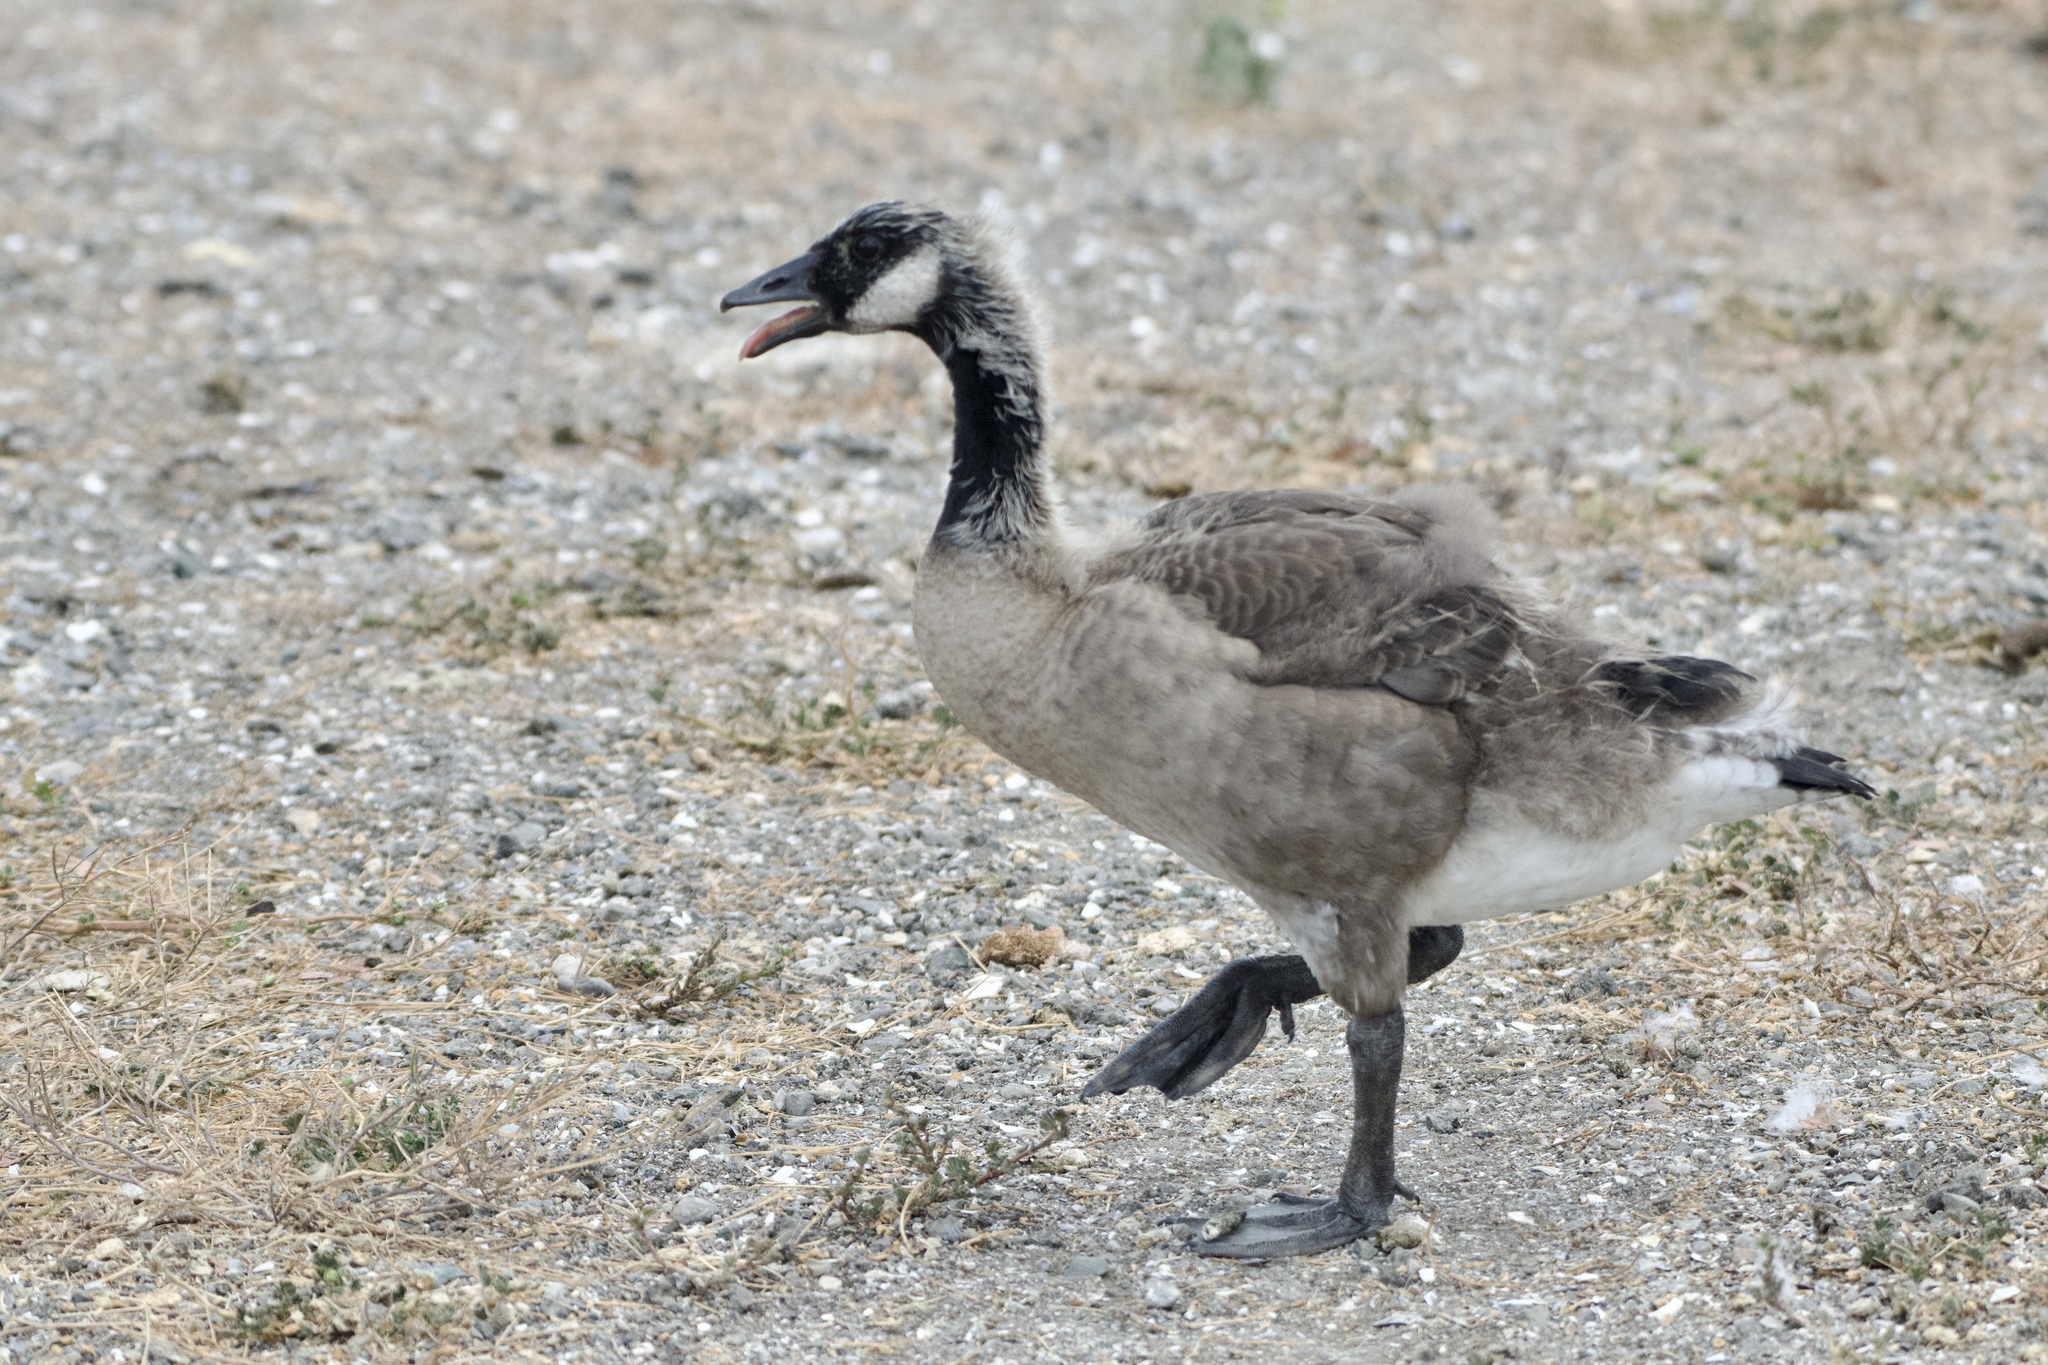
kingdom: Animalia
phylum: Chordata
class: Aves
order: Anseriformes
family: Anatidae
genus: Branta
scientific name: Branta canadensis
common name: Canada goose
